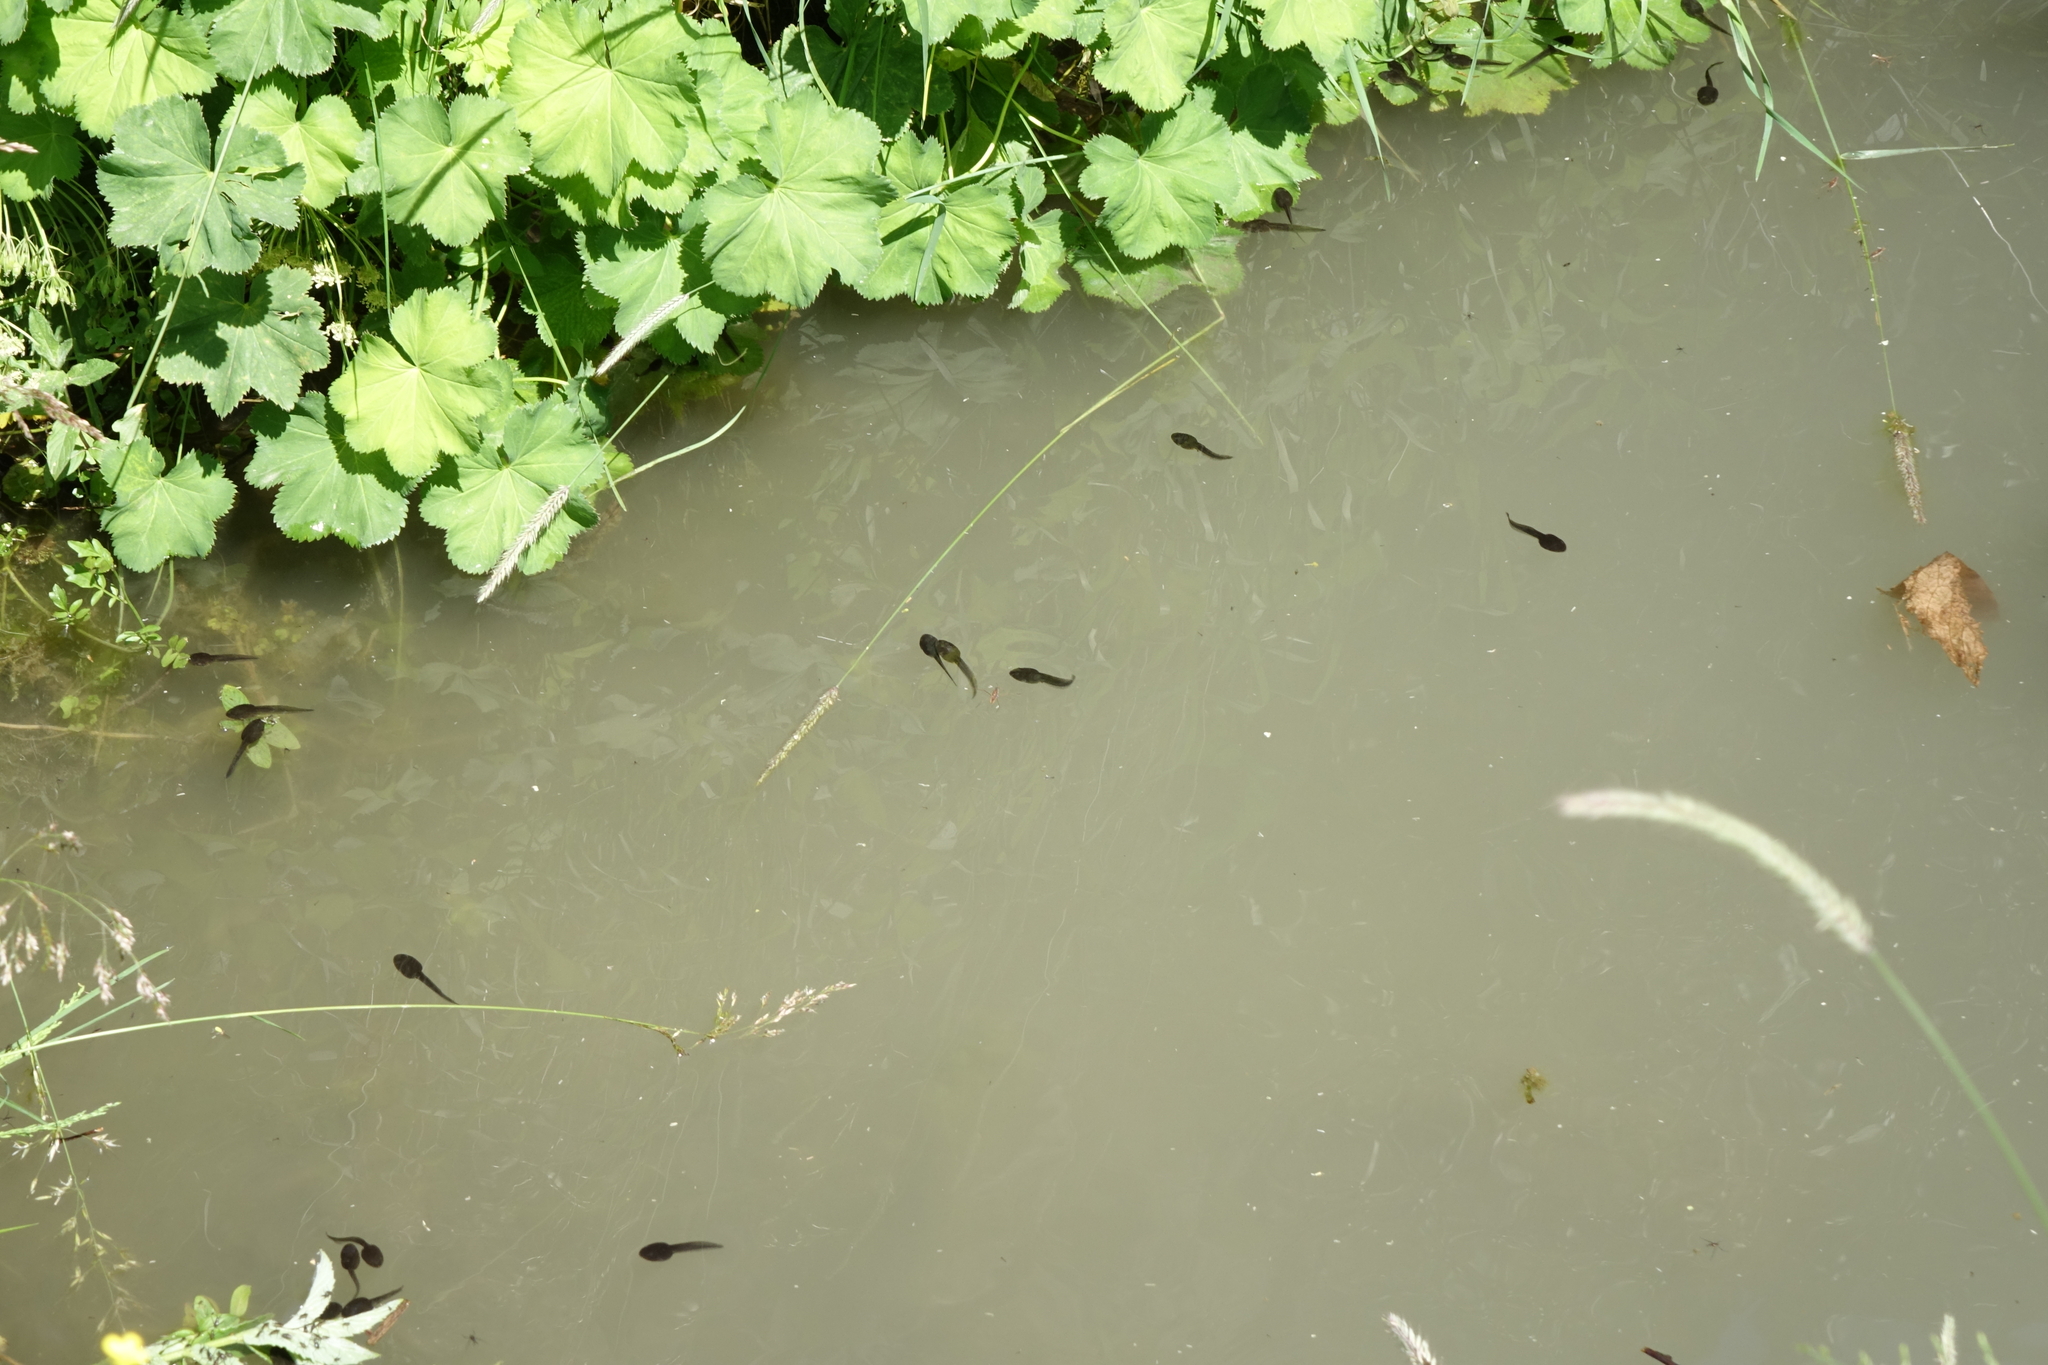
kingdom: Animalia
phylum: Chordata
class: Amphibia
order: Anura
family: Ranidae
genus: Rana
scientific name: Rana macrocnemis
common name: Banded frog
